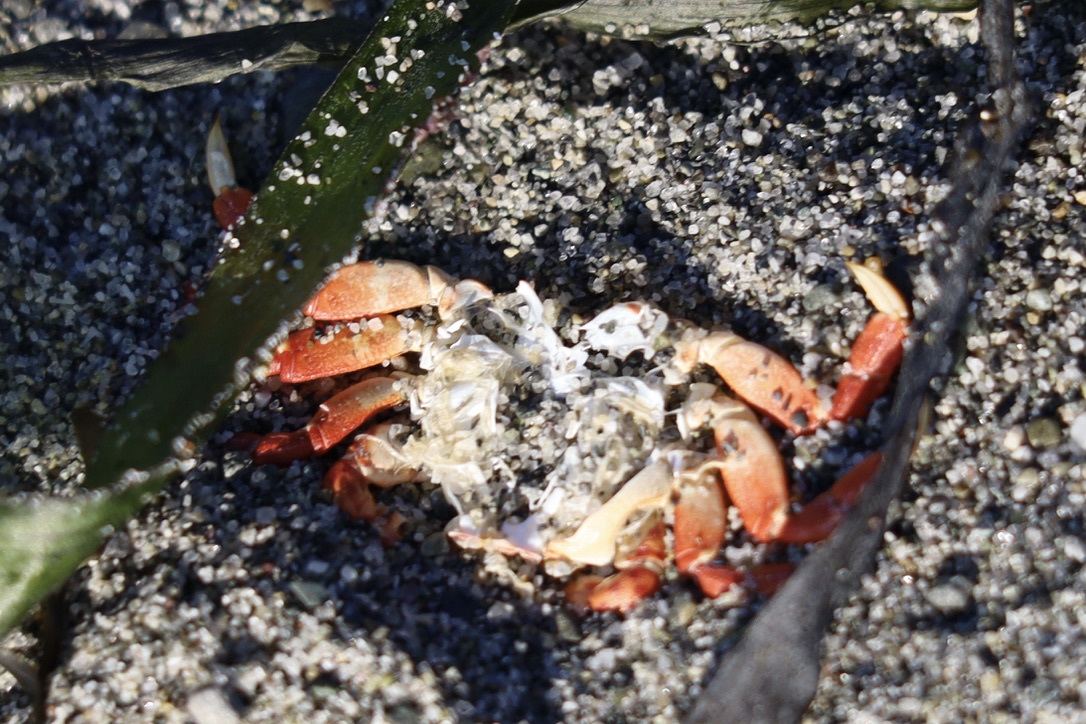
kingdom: Animalia
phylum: Arthropoda
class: Malacostraca
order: Decapoda
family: Varunidae
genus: Hemigrapsus
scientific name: Hemigrapsus nudus
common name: Purple shore crab
